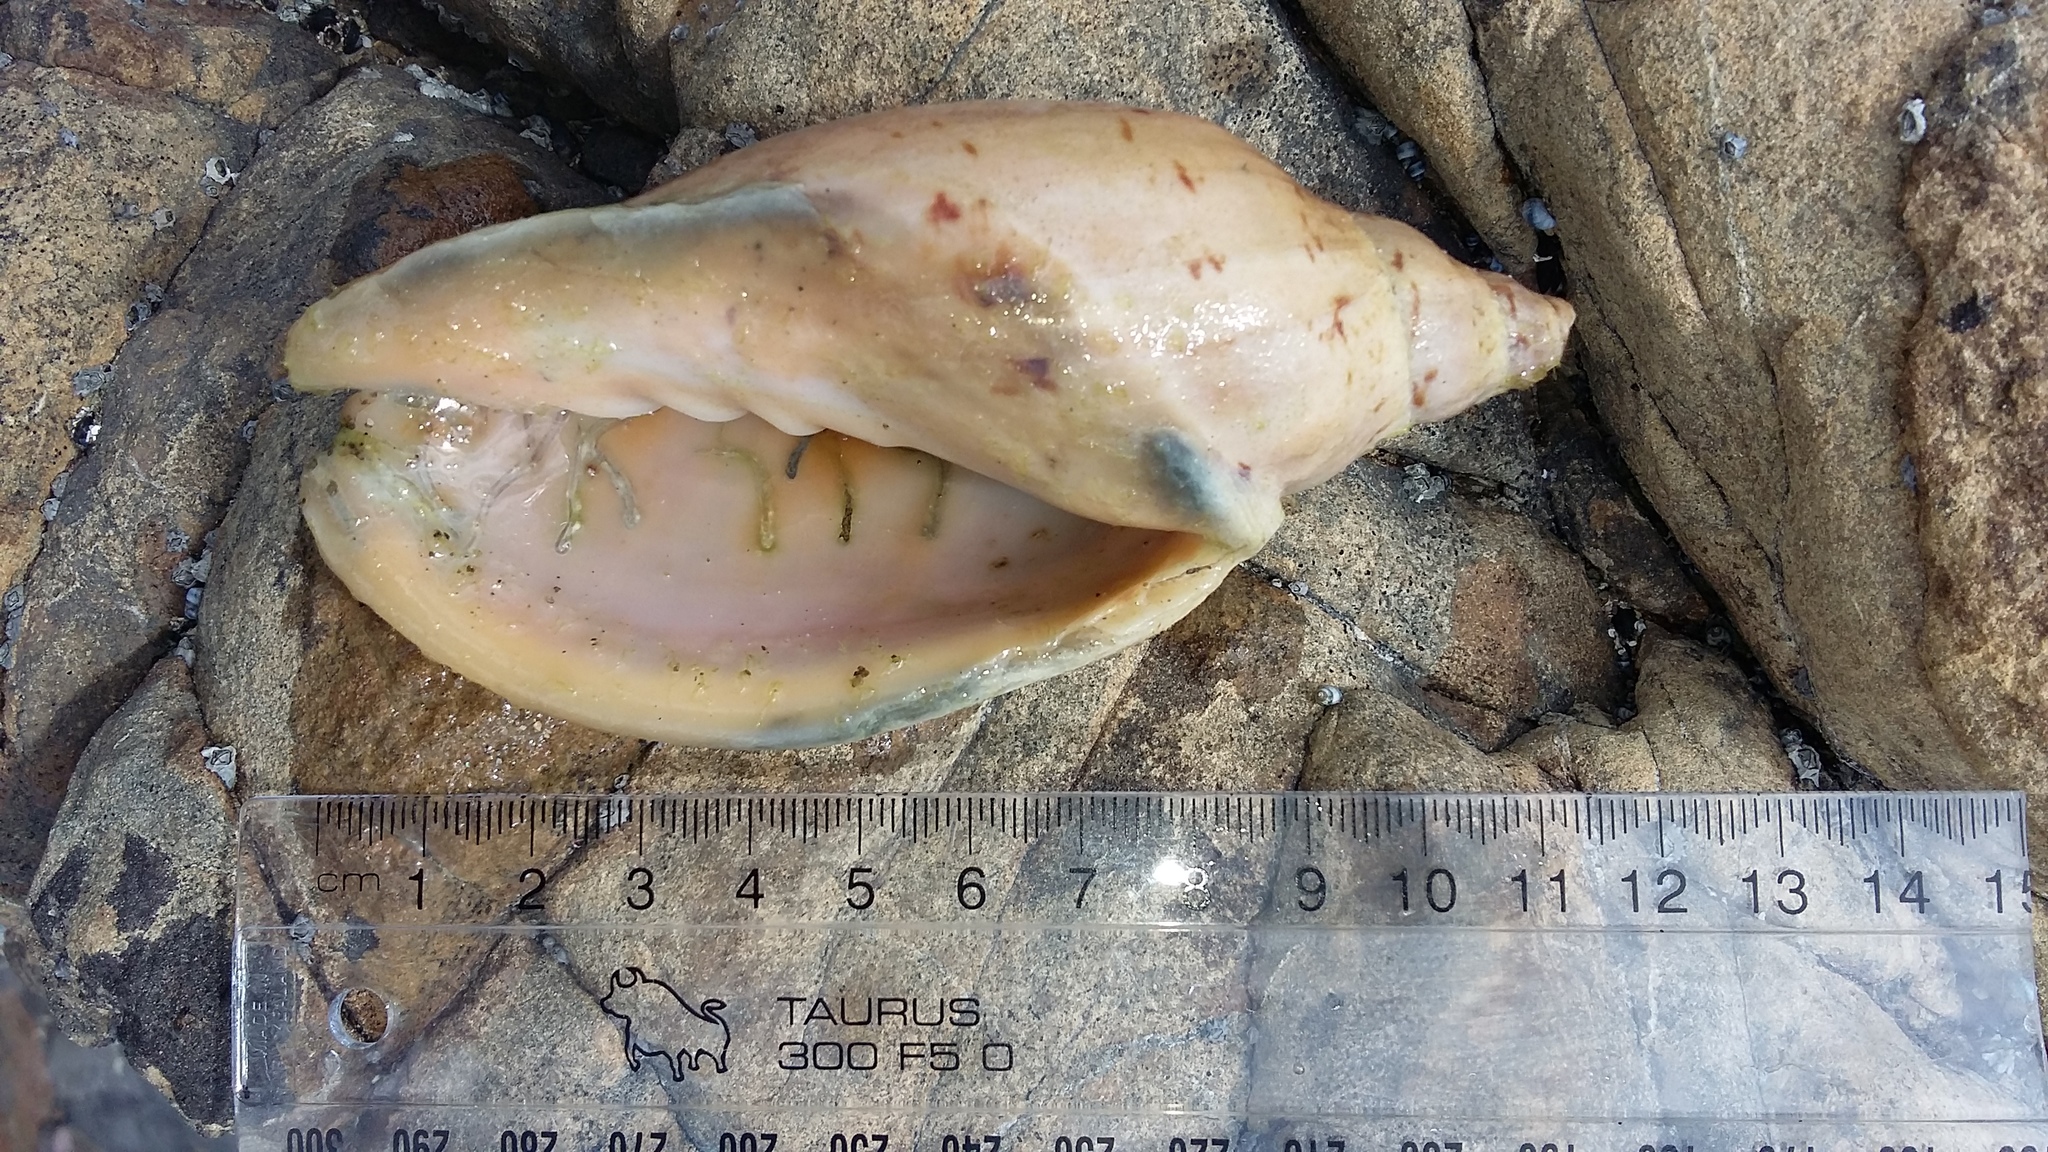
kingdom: Animalia
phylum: Mollusca
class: Gastropoda
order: Neogastropoda
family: Volutidae
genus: Alcithoe
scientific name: Alcithoe arabica
